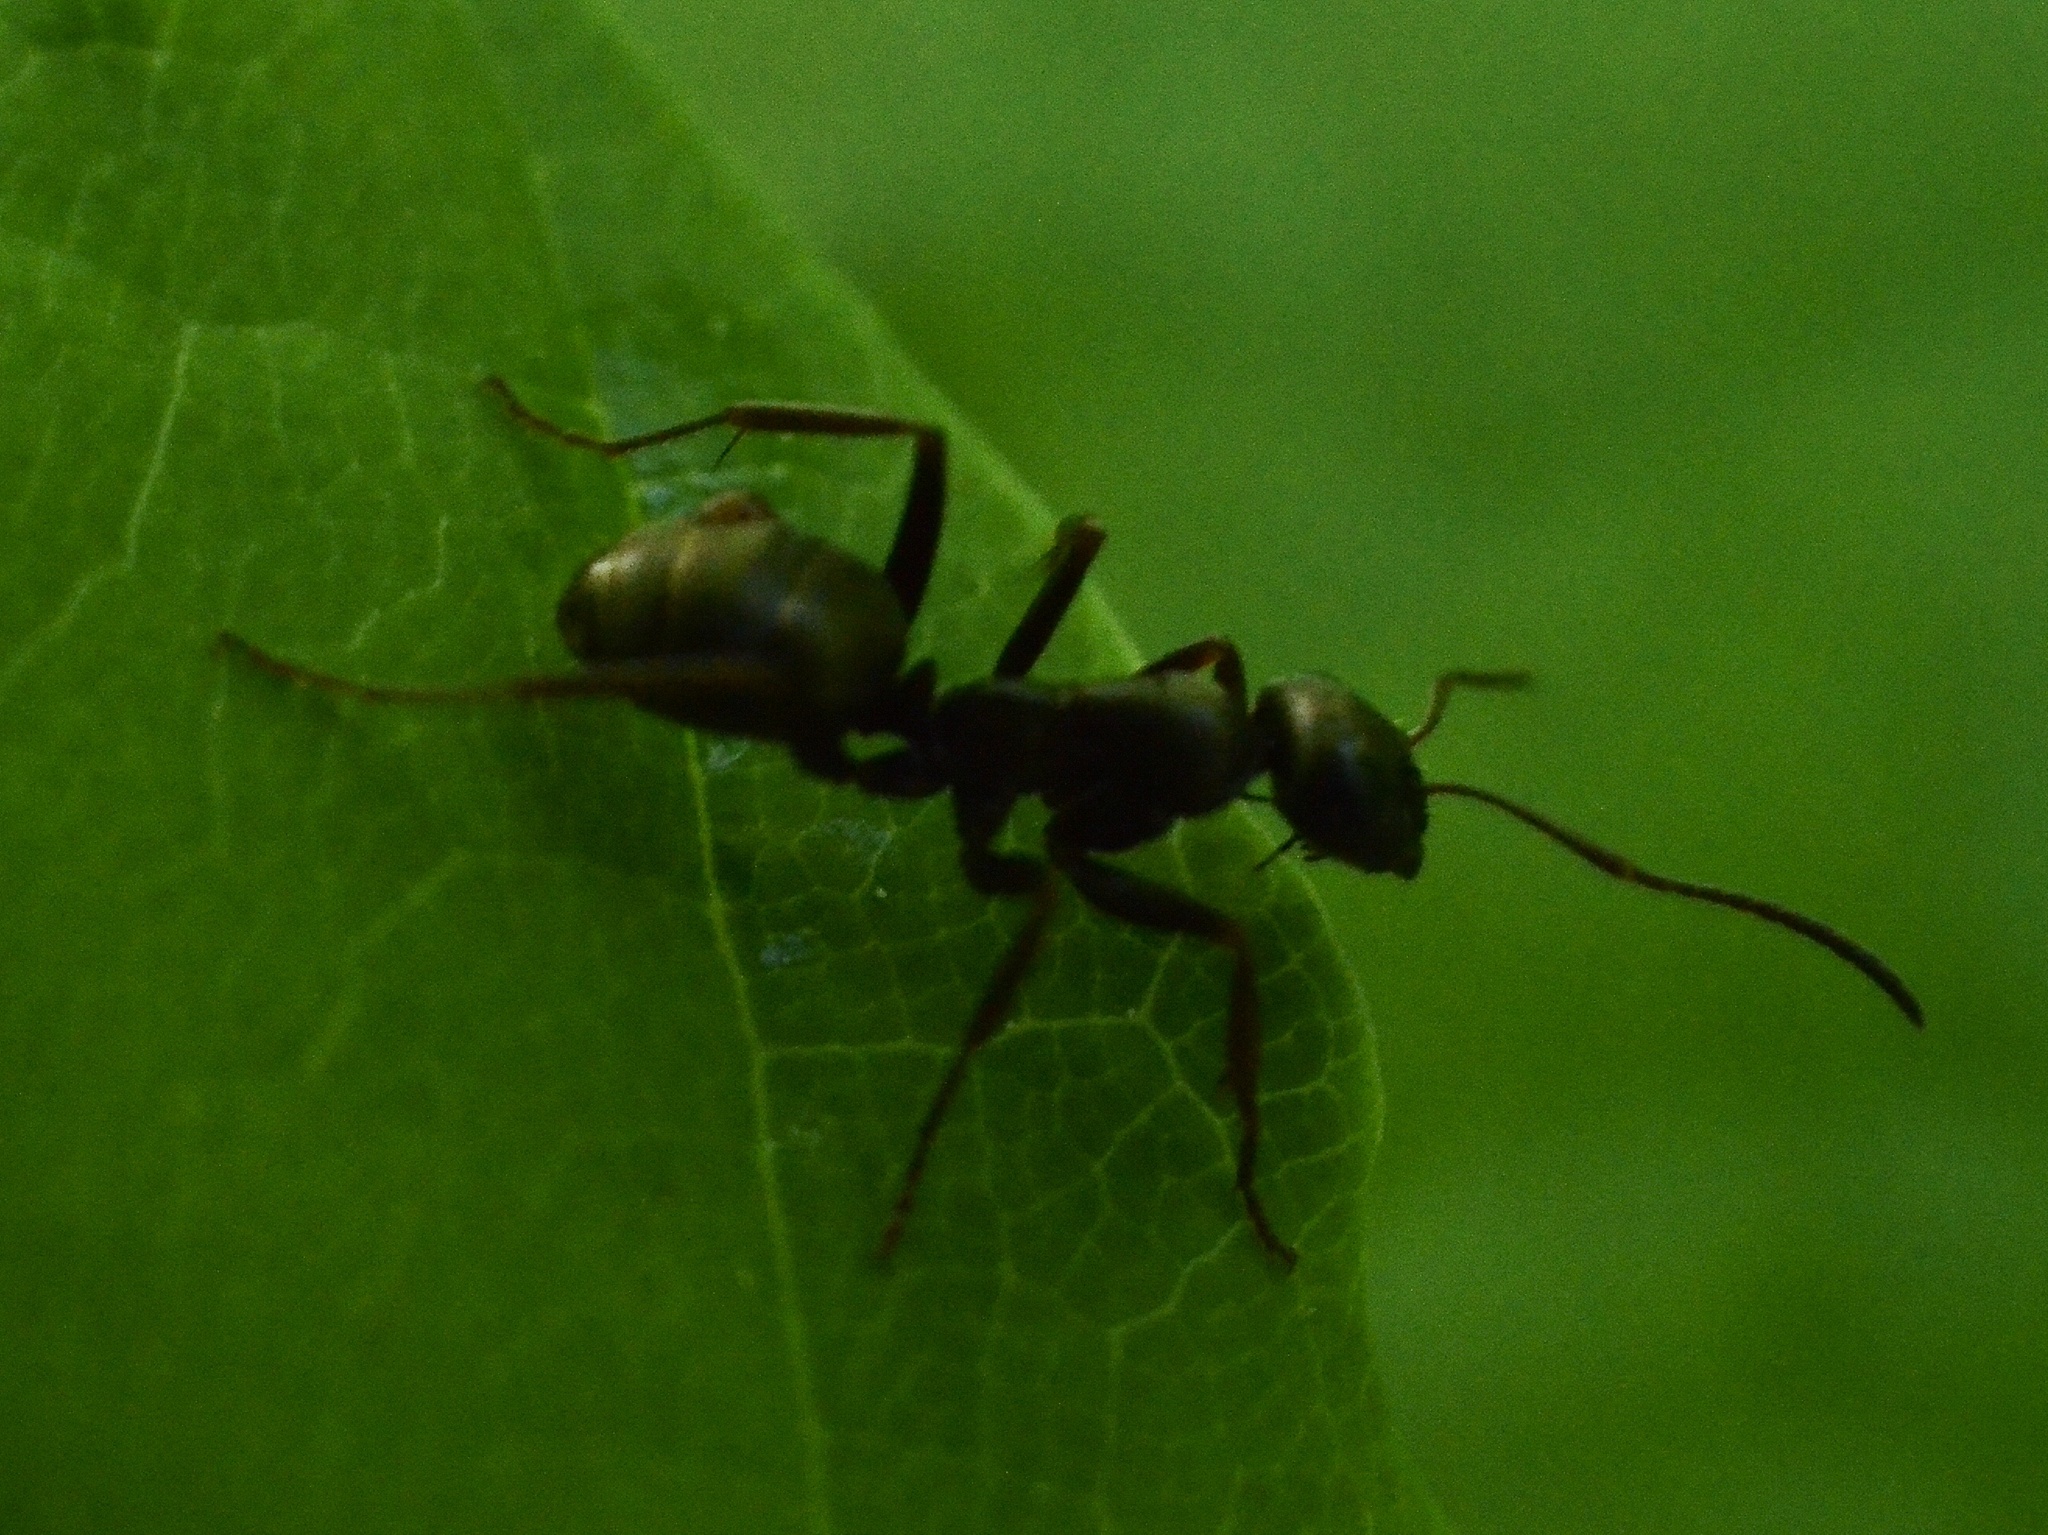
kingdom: Animalia
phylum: Arthropoda
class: Insecta
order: Hymenoptera
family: Formicidae
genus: Formica
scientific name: Formica
